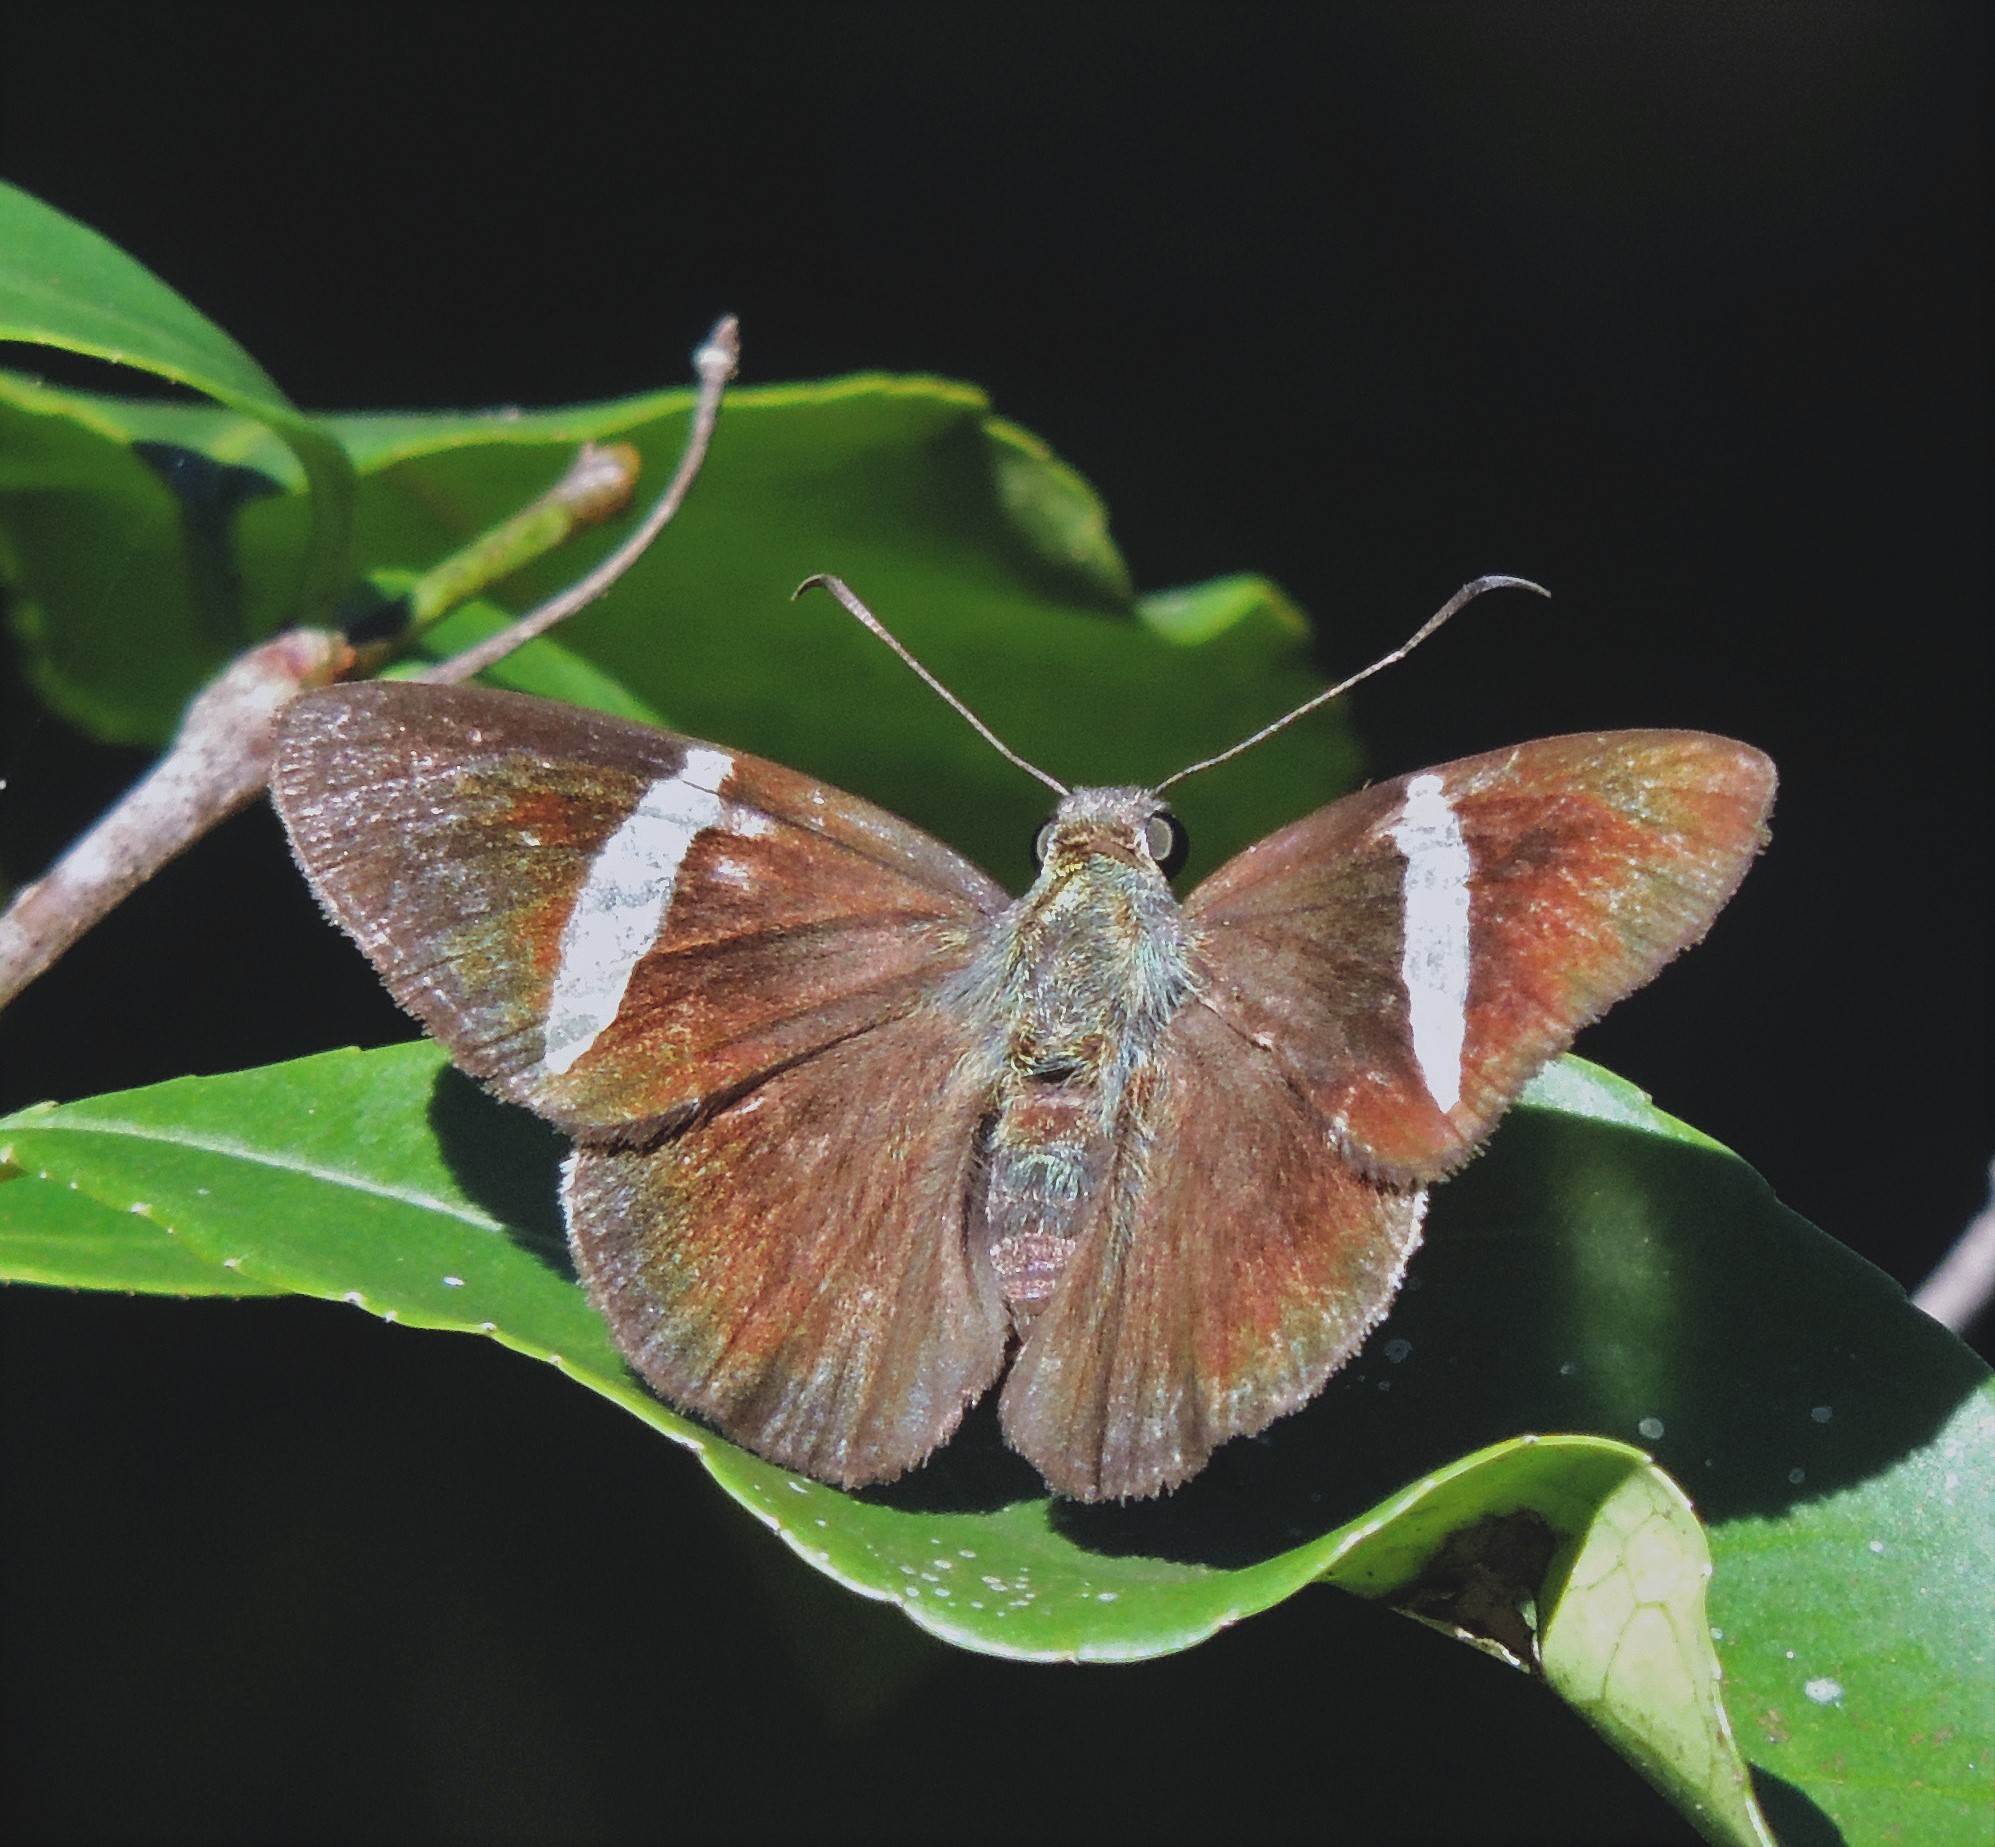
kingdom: Animalia
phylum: Arthropoda
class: Insecta
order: Lepidoptera
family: Hesperiidae
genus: Autochton
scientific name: Autochton zarex
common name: Sharp banded-skipper
